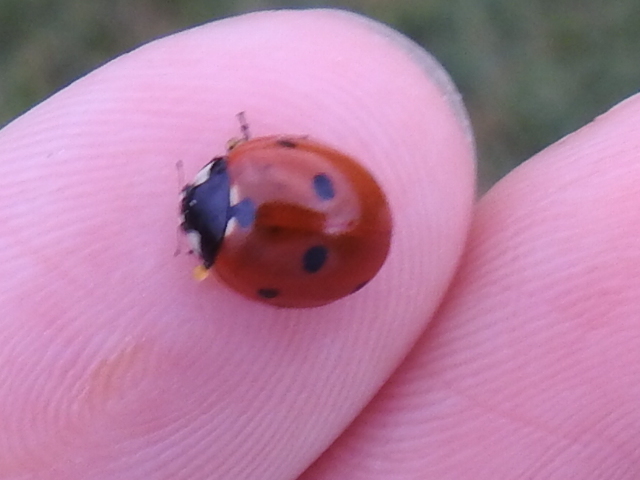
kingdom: Animalia
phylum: Arthropoda
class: Insecta
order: Coleoptera
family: Coccinellidae
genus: Coccinella
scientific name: Coccinella septempunctata
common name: Sevenspotted lady beetle
